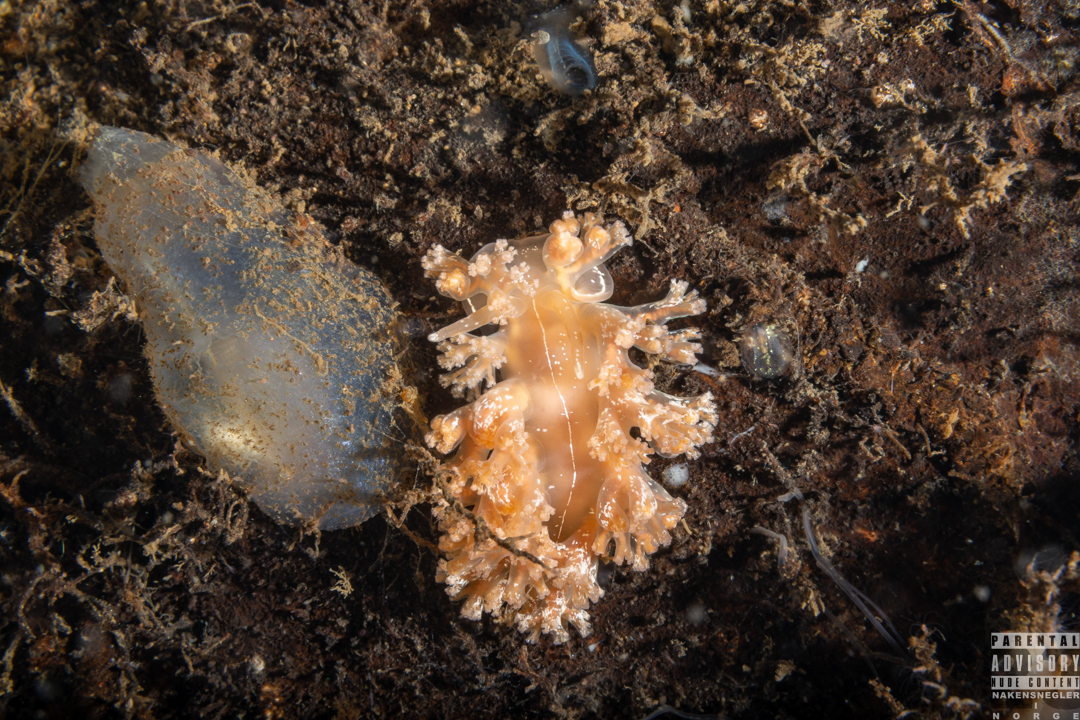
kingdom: Animalia
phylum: Mollusca
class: Gastropoda
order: Nudibranchia
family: Heroidae
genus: Hero
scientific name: Hero formosa
